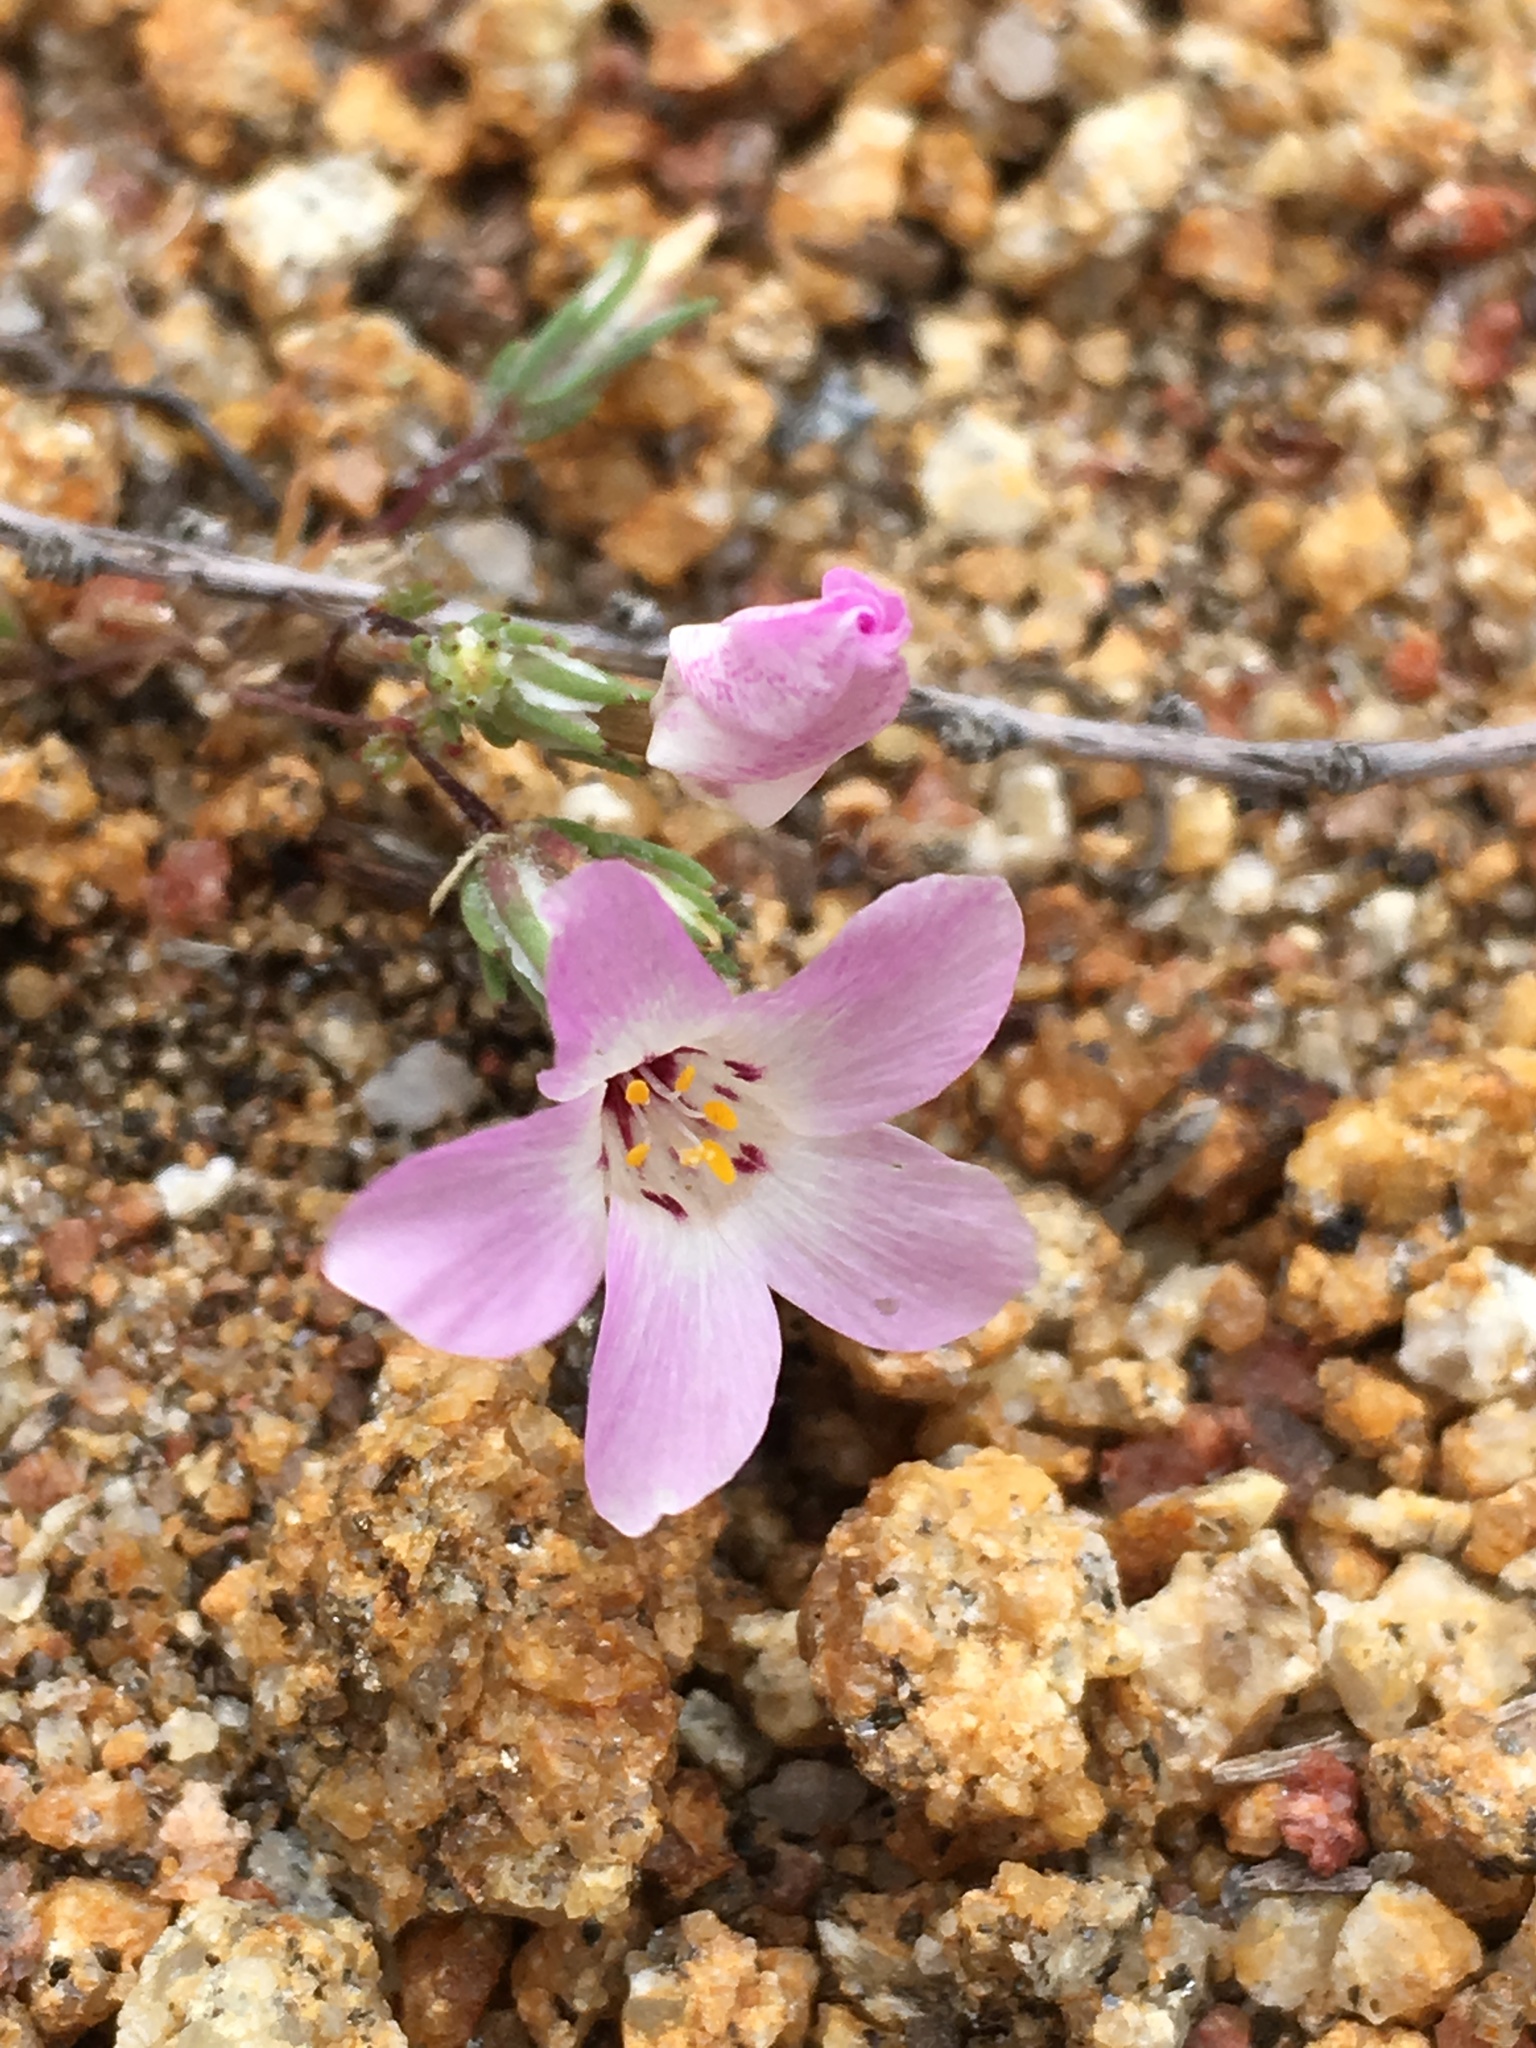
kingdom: Plantae
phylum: Tracheophyta
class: Magnoliopsida
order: Ericales
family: Polemoniaceae
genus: Linanthus
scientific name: Linanthus orcuttii
